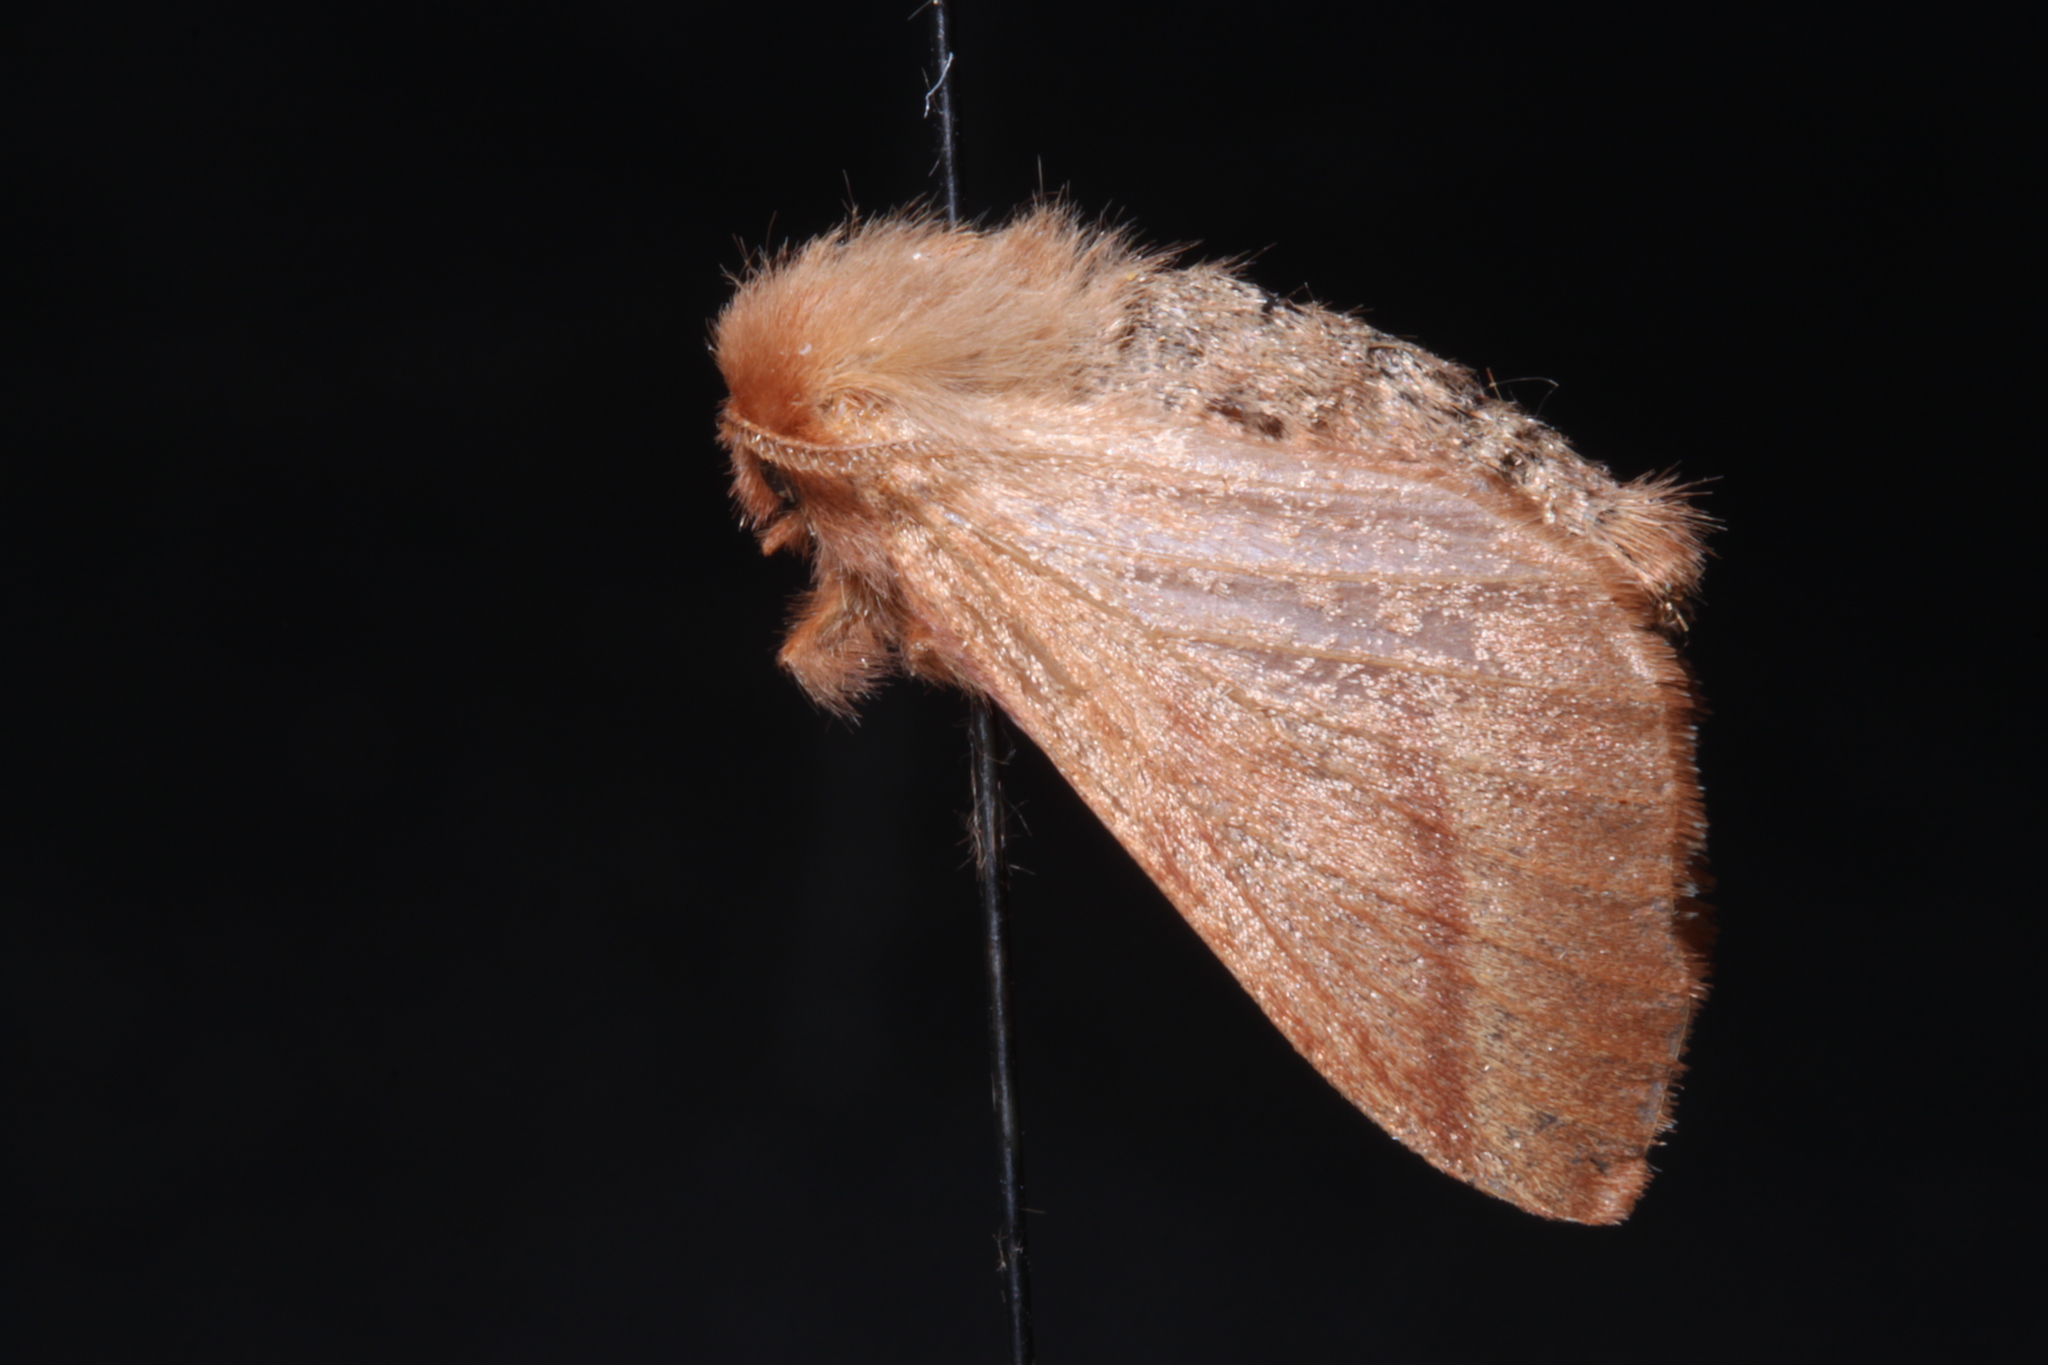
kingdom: Animalia
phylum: Arthropoda
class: Insecta
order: Lepidoptera
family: Lasiocampidae
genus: Malacosoma
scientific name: Malacosoma disstria
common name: Forest tent caterpillar
